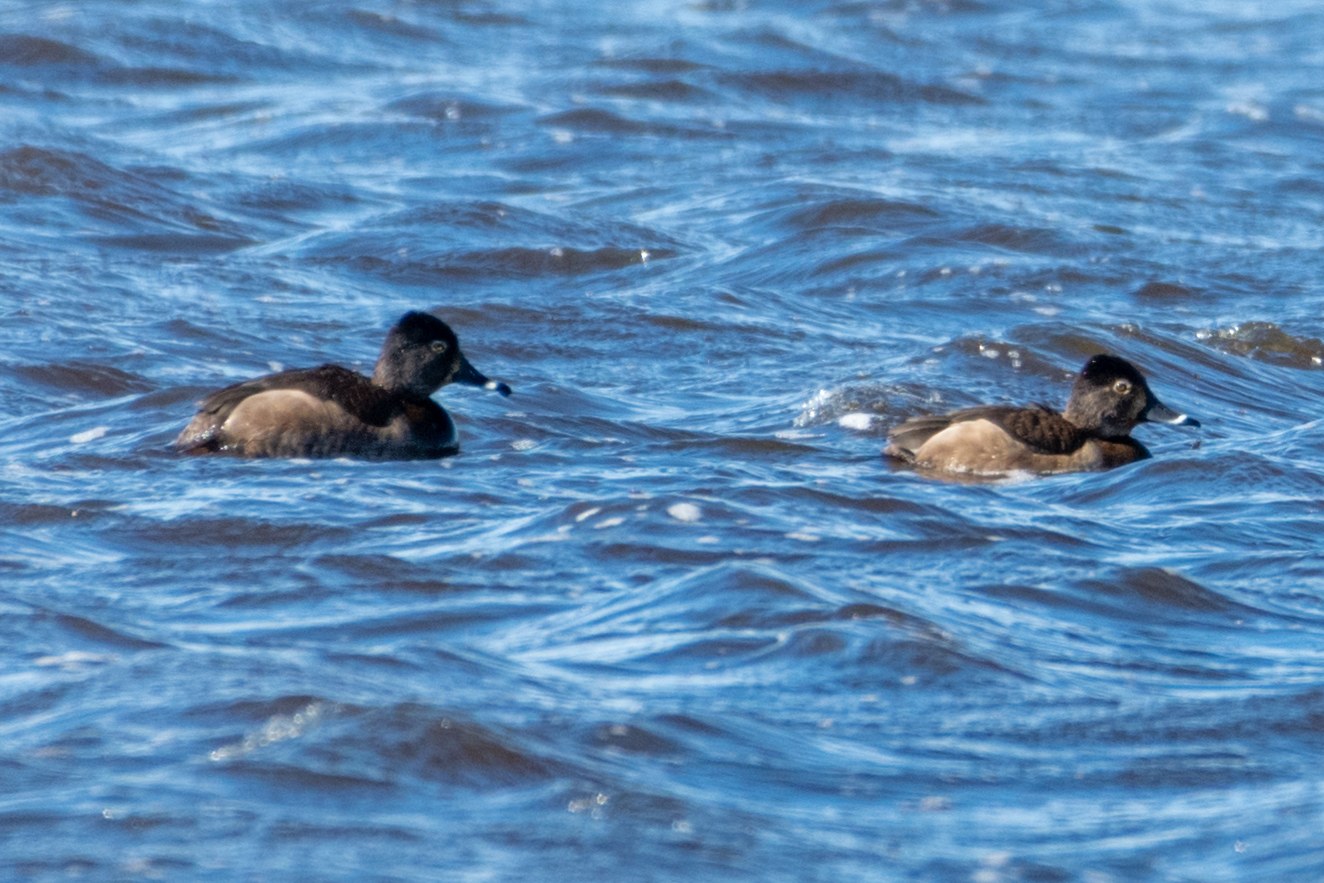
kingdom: Animalia
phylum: Chordata
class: Aves
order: Anseriformes
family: Anatidae
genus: Aythya
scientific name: Aythya collaris
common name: Ring-necked duck
